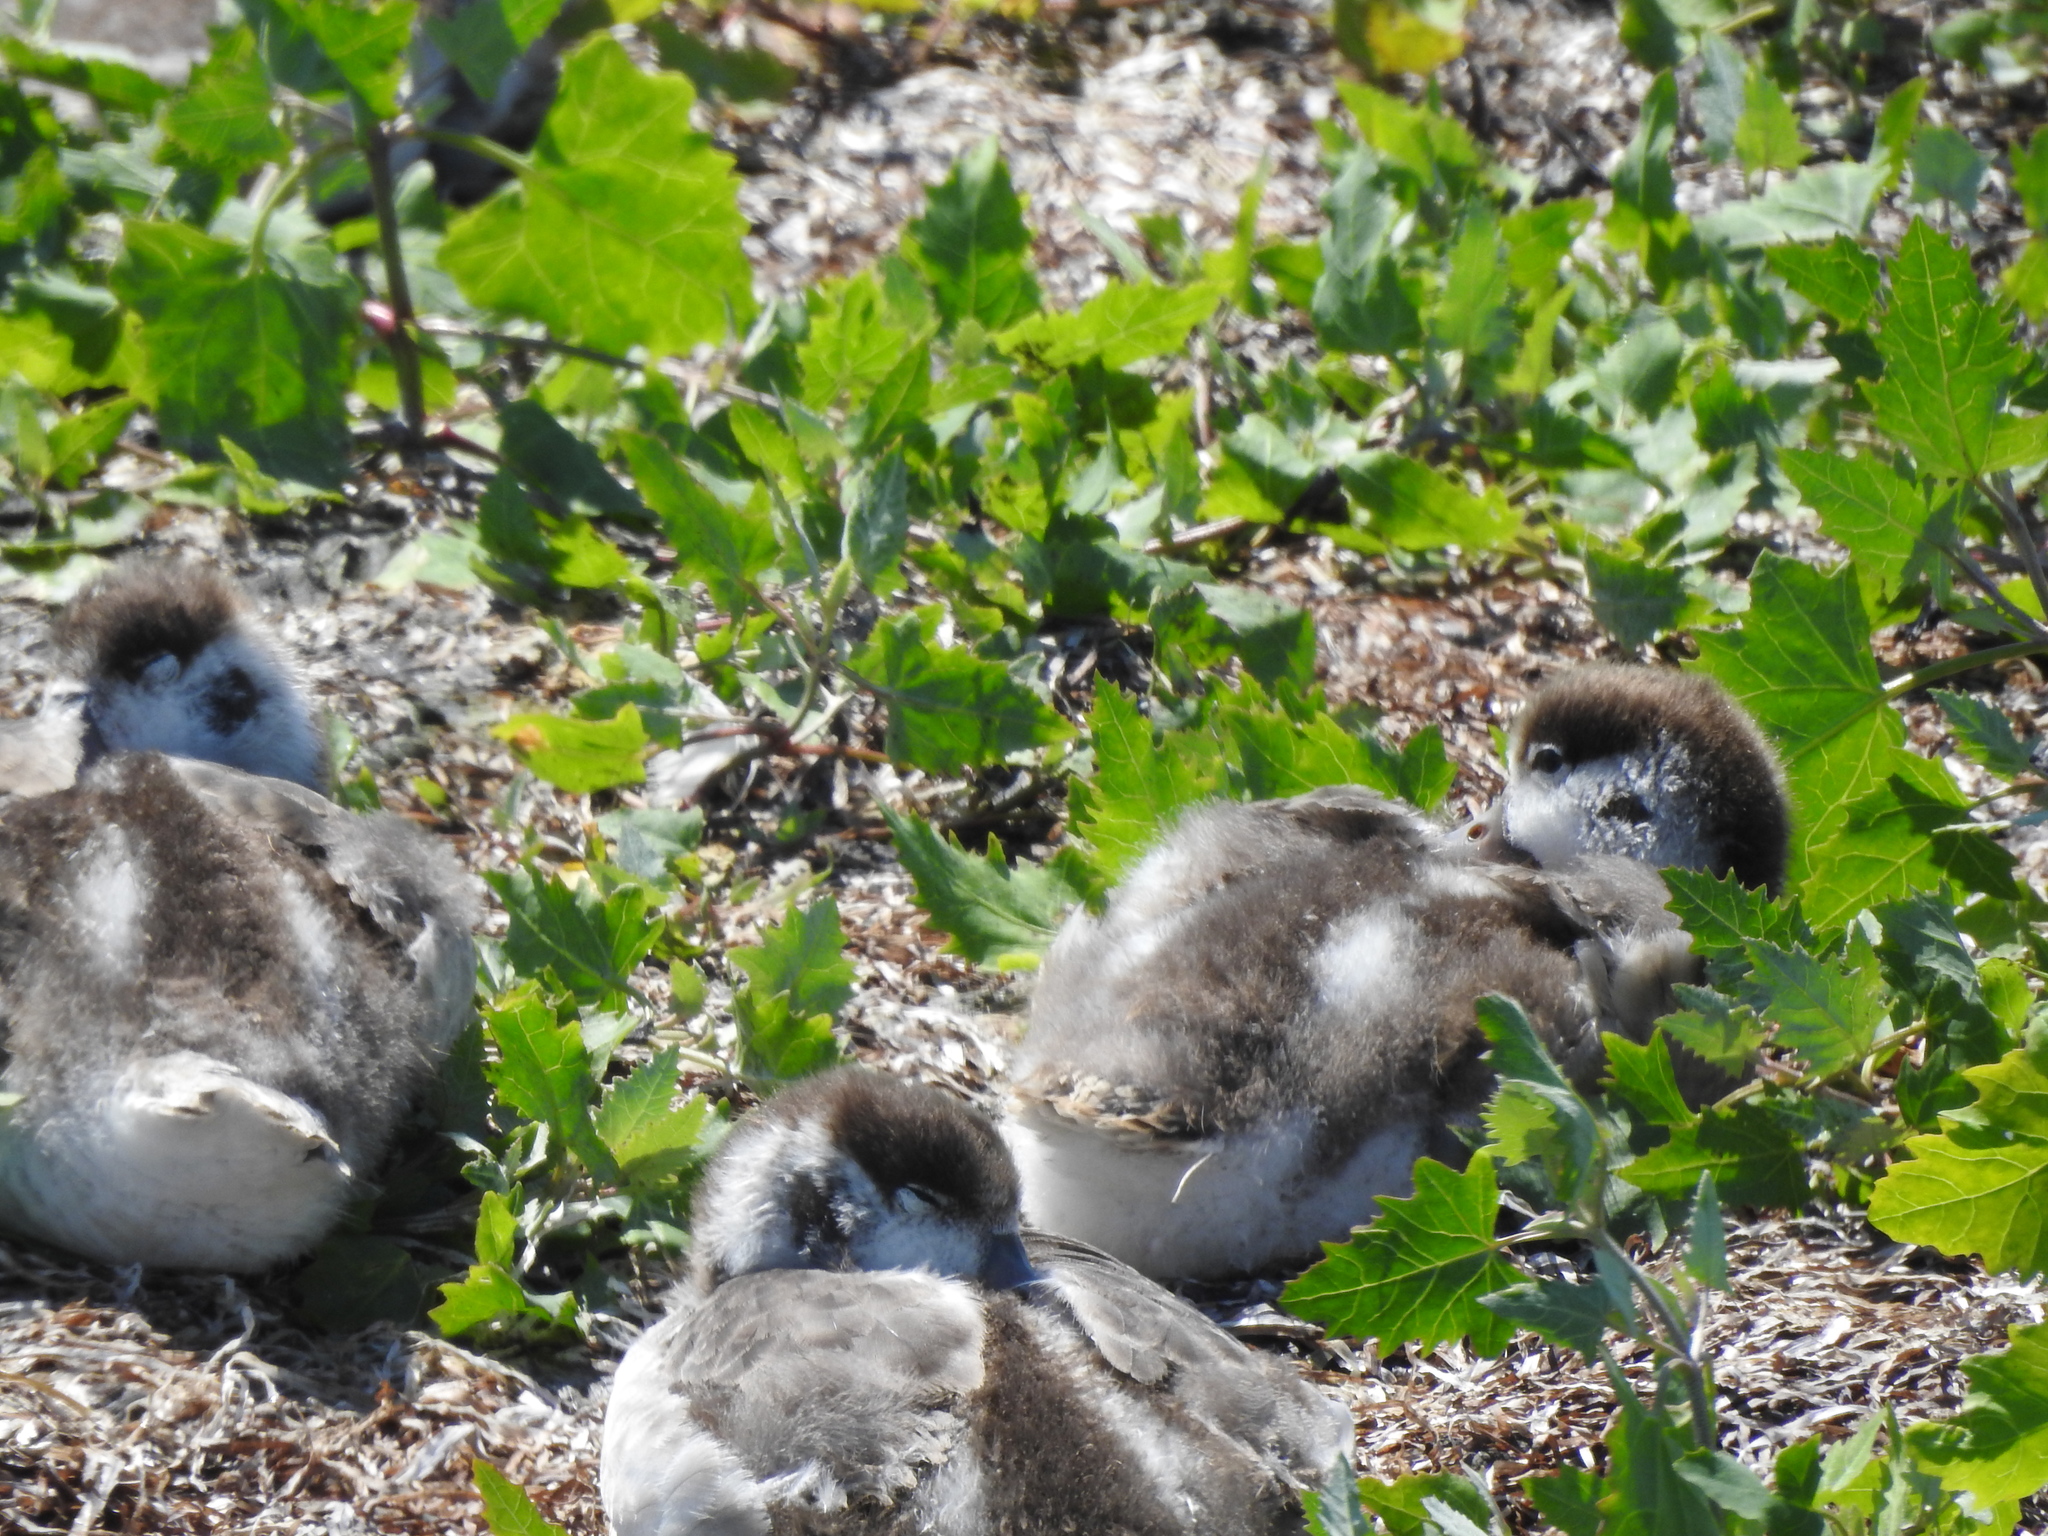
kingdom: Animalia
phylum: Chordata
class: Aves
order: Anseriformes
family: Anatidae
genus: Tadorna
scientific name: Tadorna tadorna
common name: Common shelduck
